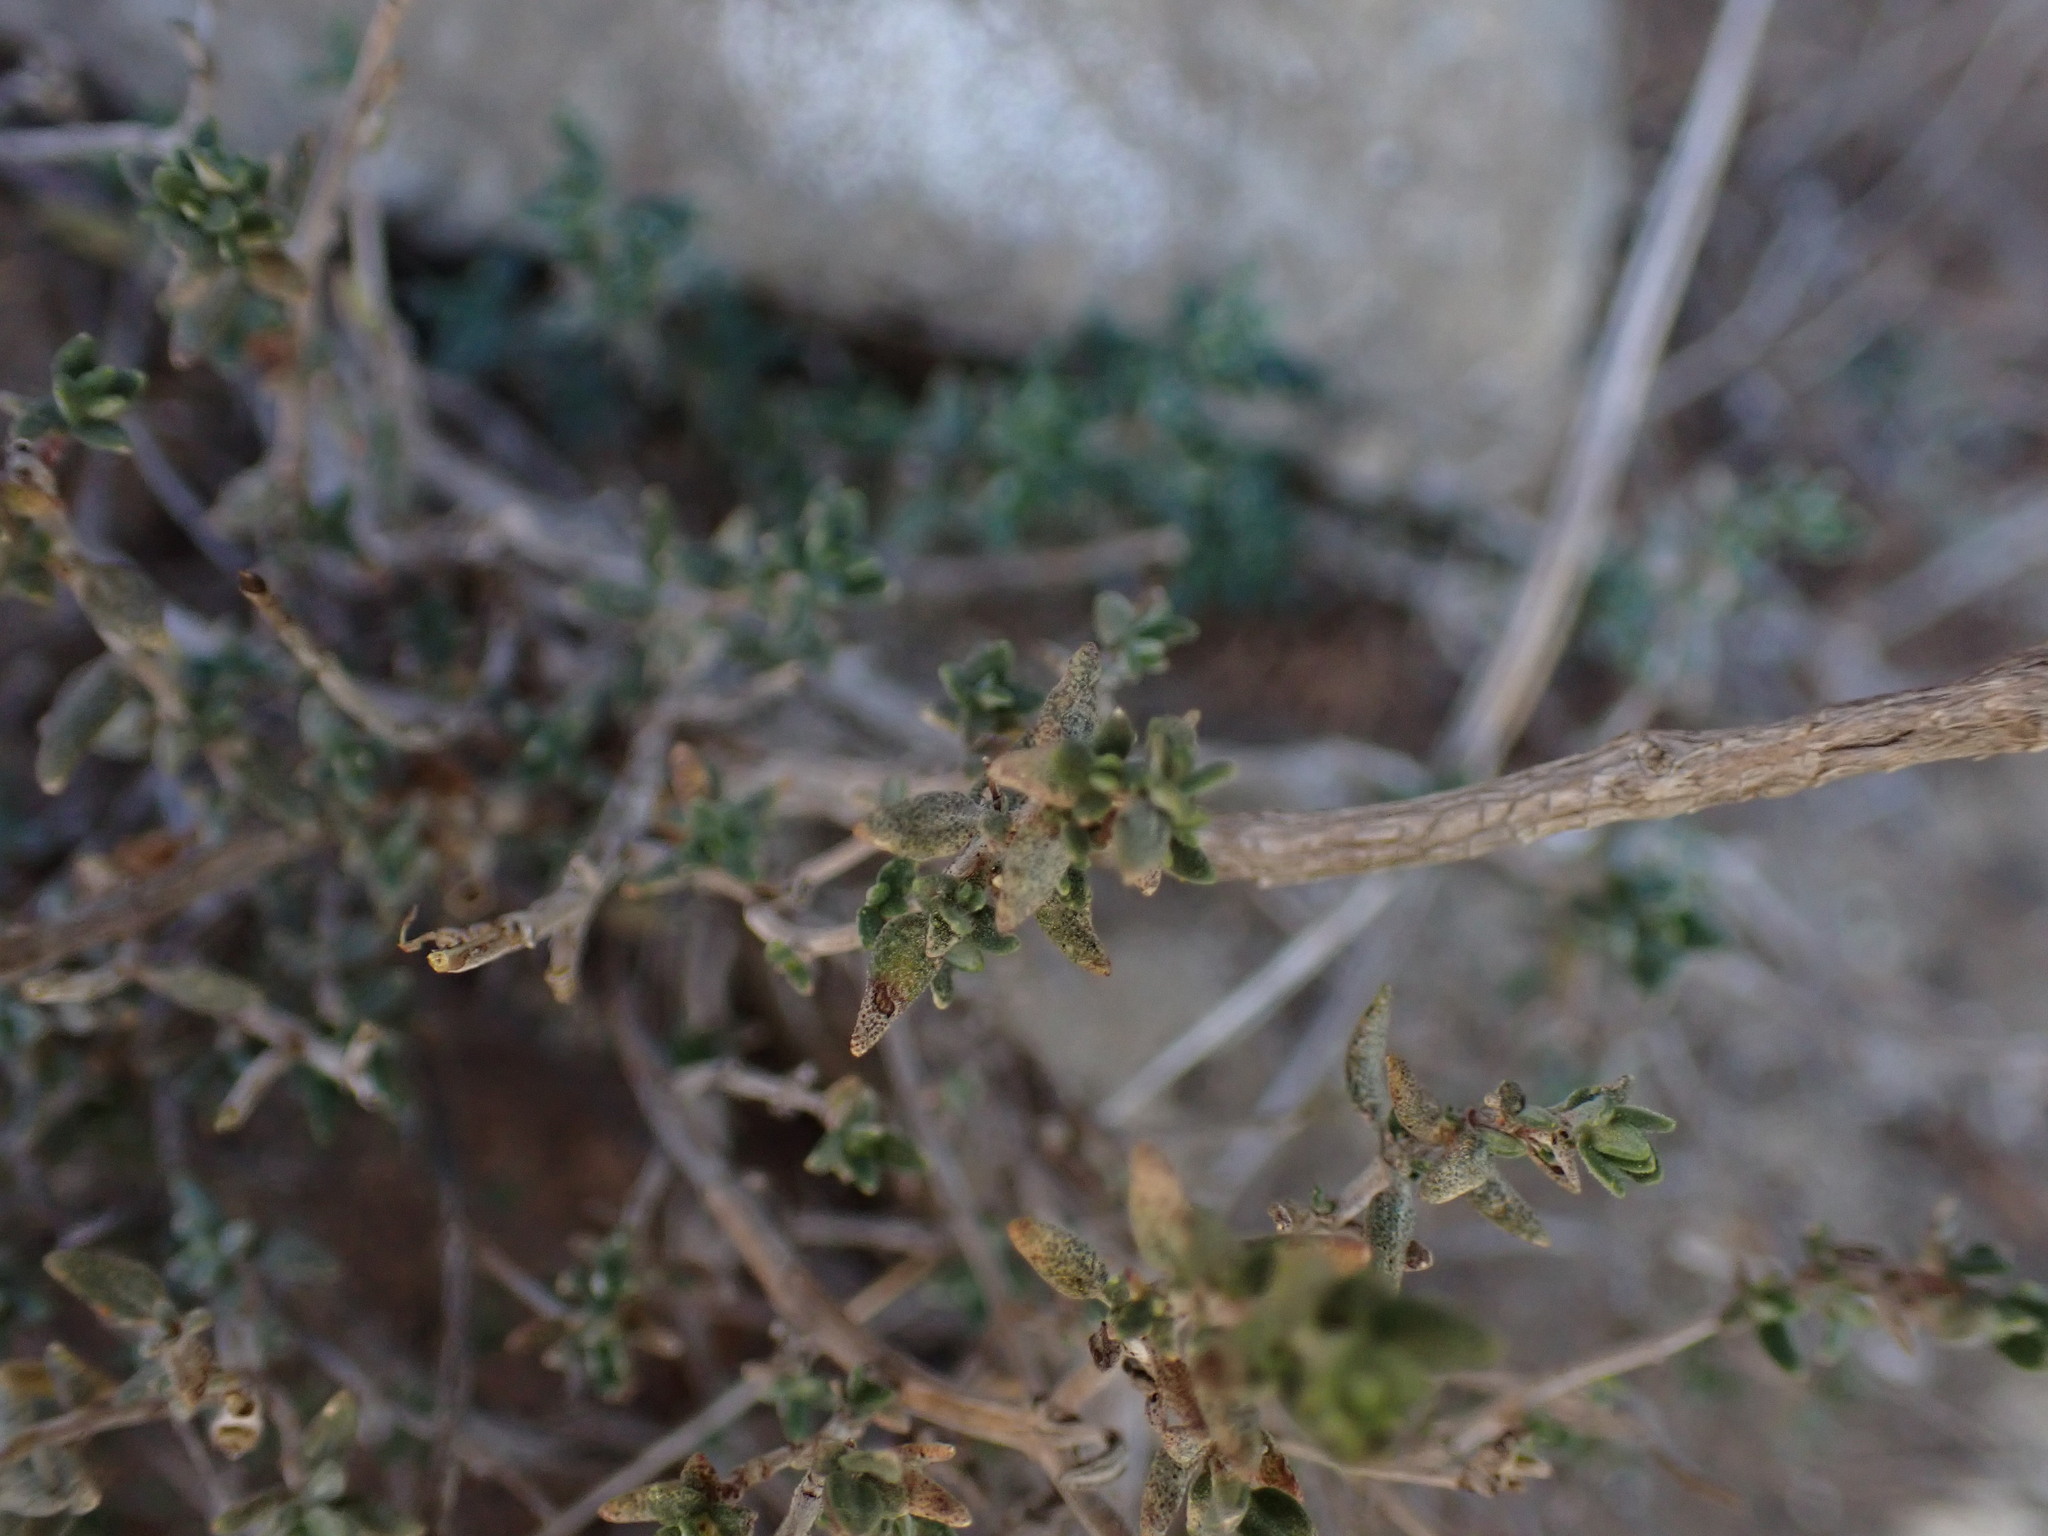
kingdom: Plantae
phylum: Tracheophyta
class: Magnoliopsida
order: Lamiales
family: Lamiaceae
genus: Thymus
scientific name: Thymus vulgaris
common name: Garden thyme
